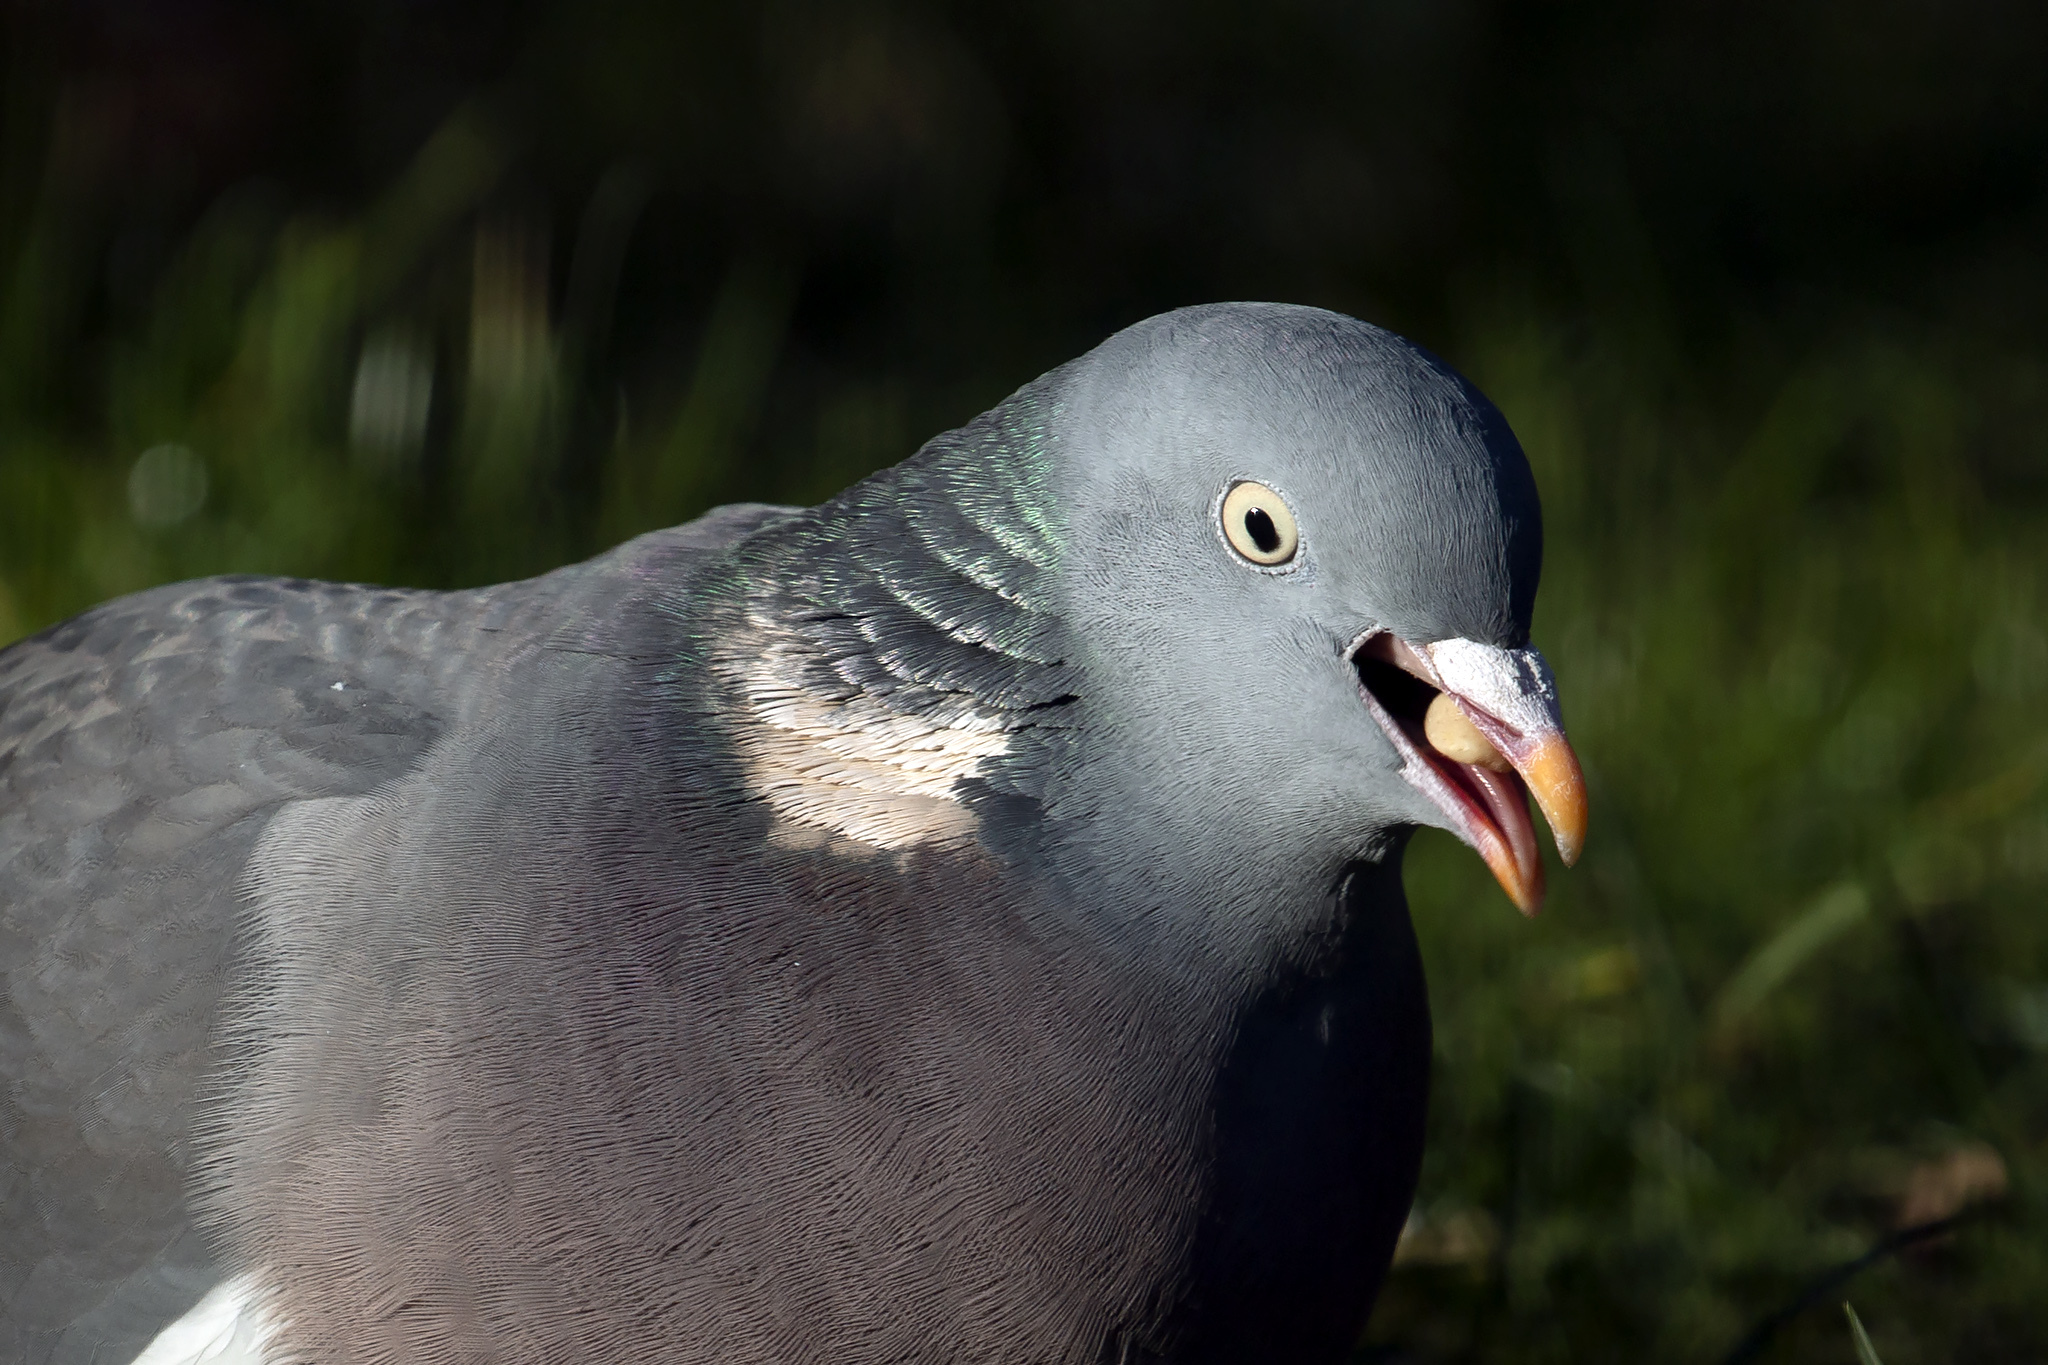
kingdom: Animalia
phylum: Chordata
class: Aves
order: Columbiformes
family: Columbidae
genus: Columba
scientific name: Columba palumbus
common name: Common wood pigeon
